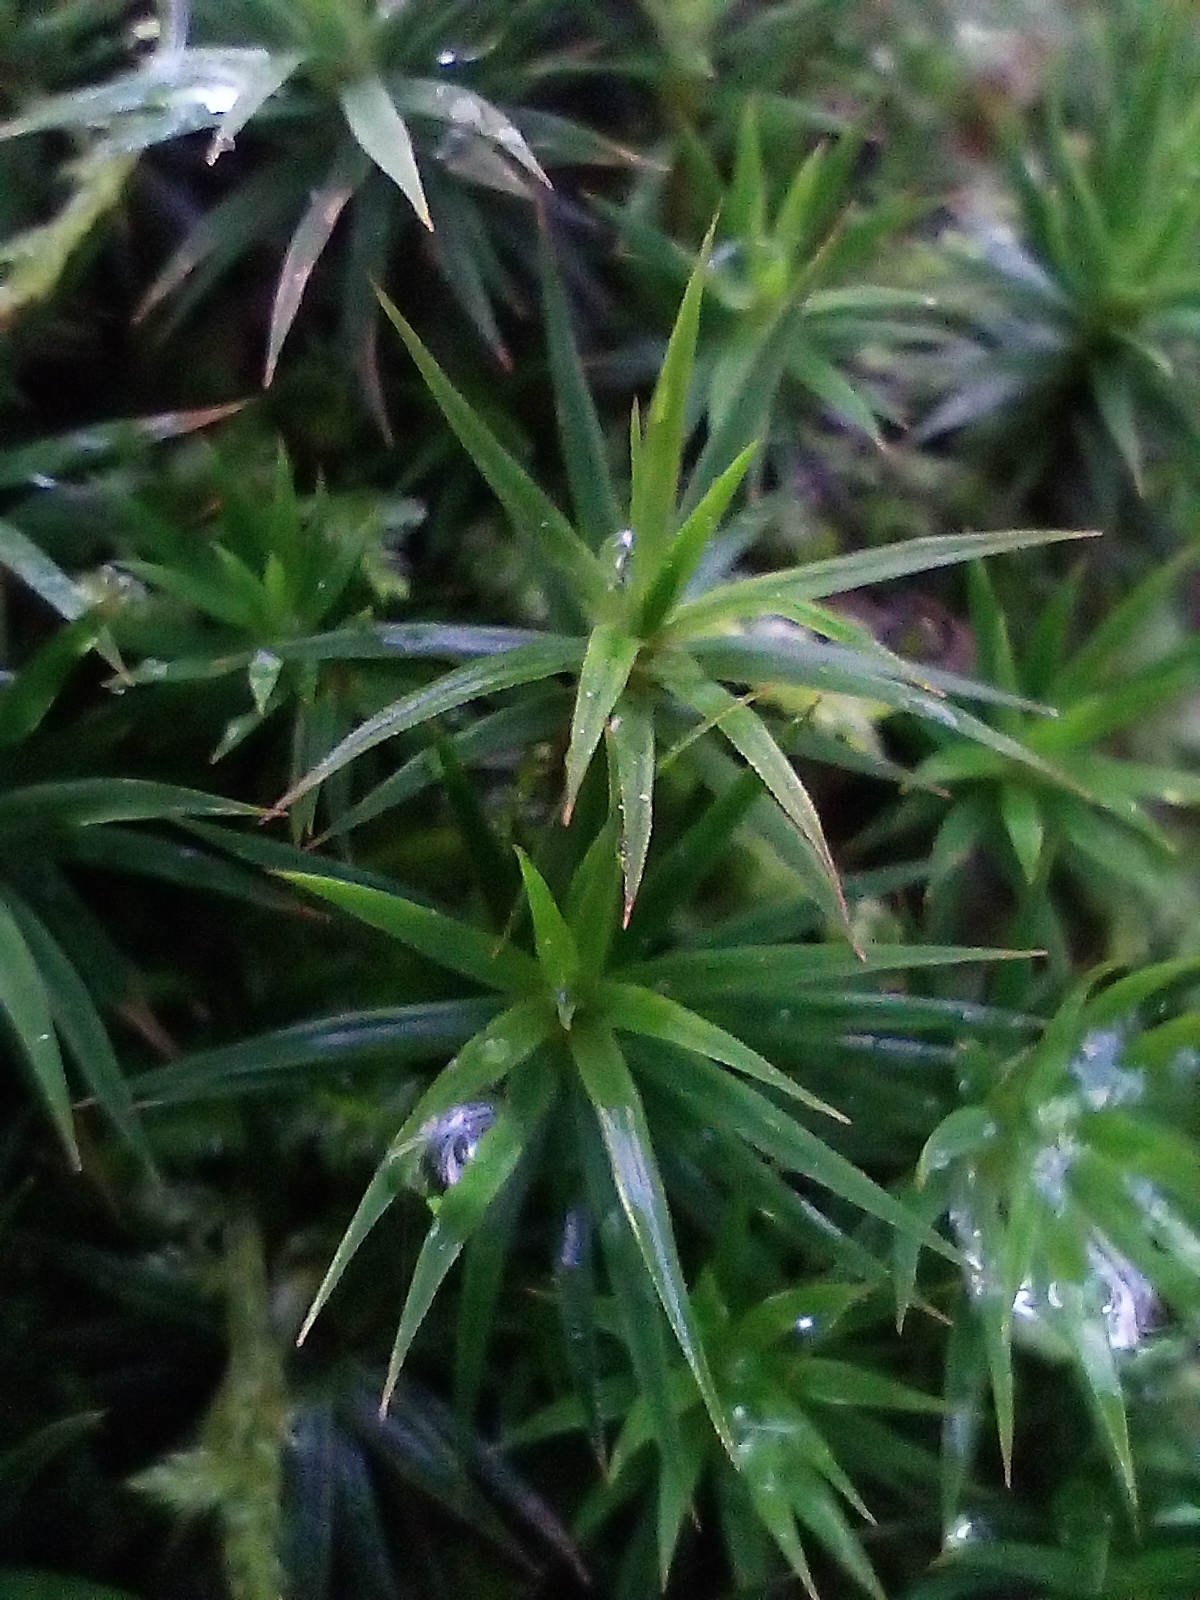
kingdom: Plantae
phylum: Bryophyta
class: Polytrichopsida
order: Polytrichales
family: Polytrichaceae
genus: Polytrichum
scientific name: Polytrichum formosum
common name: Bank haircap moss
